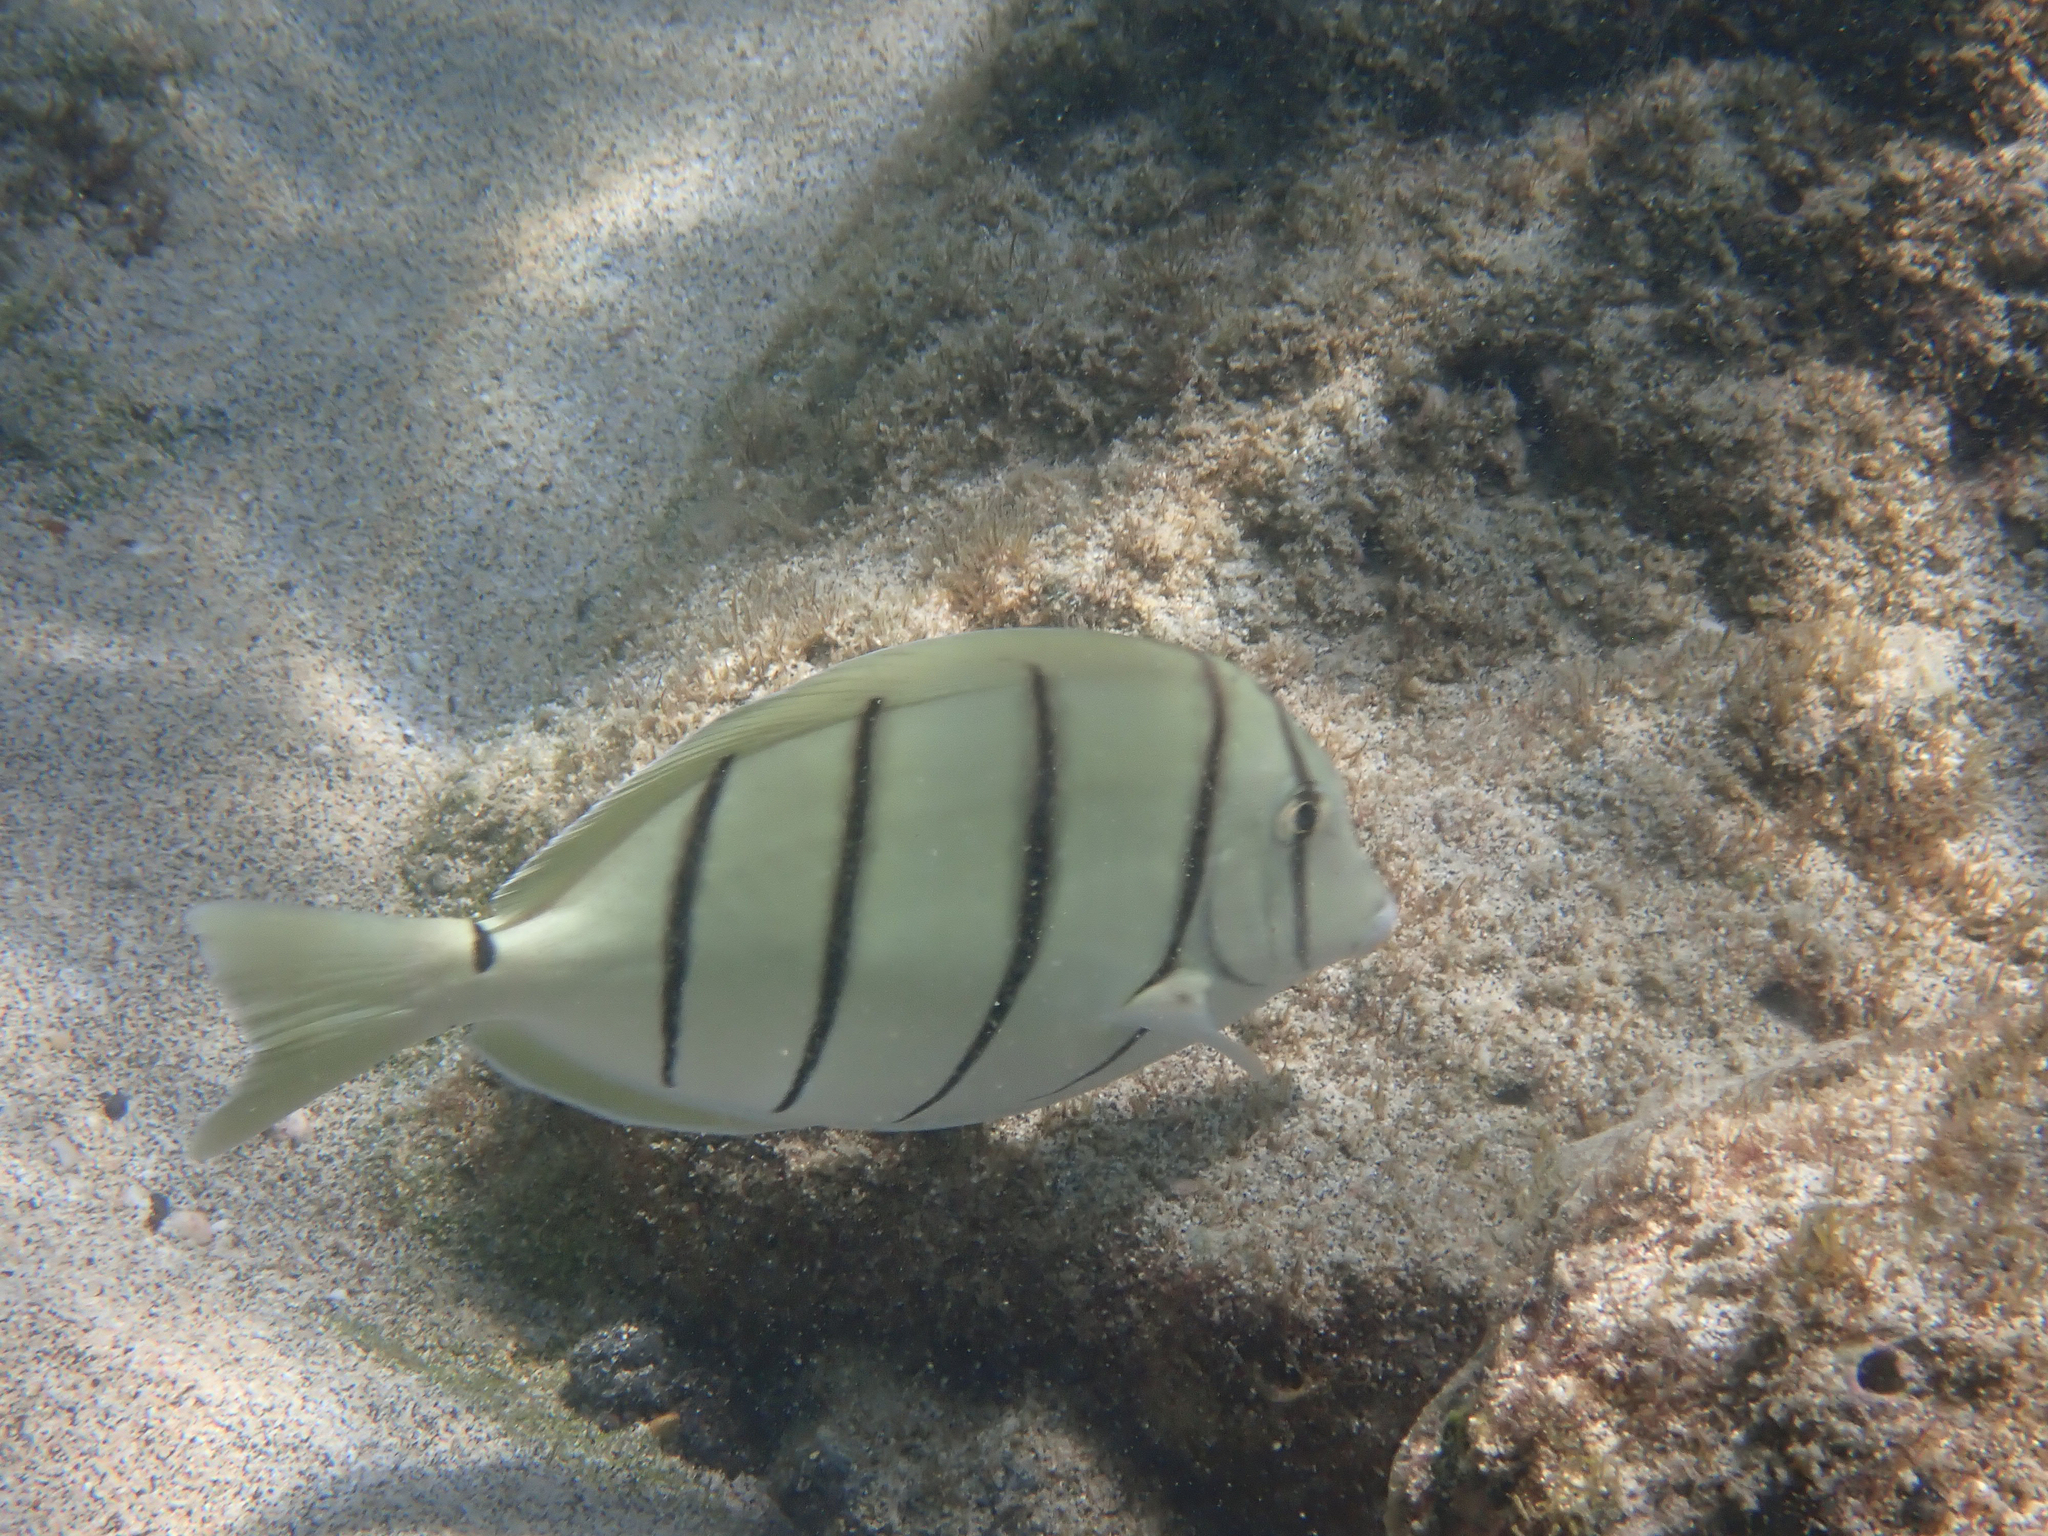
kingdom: Animalia
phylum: Chordata
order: Perciformes
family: Acanthuridae
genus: Acanthurus
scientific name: Acanthurus triostegus
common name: Convict surgeonfish
